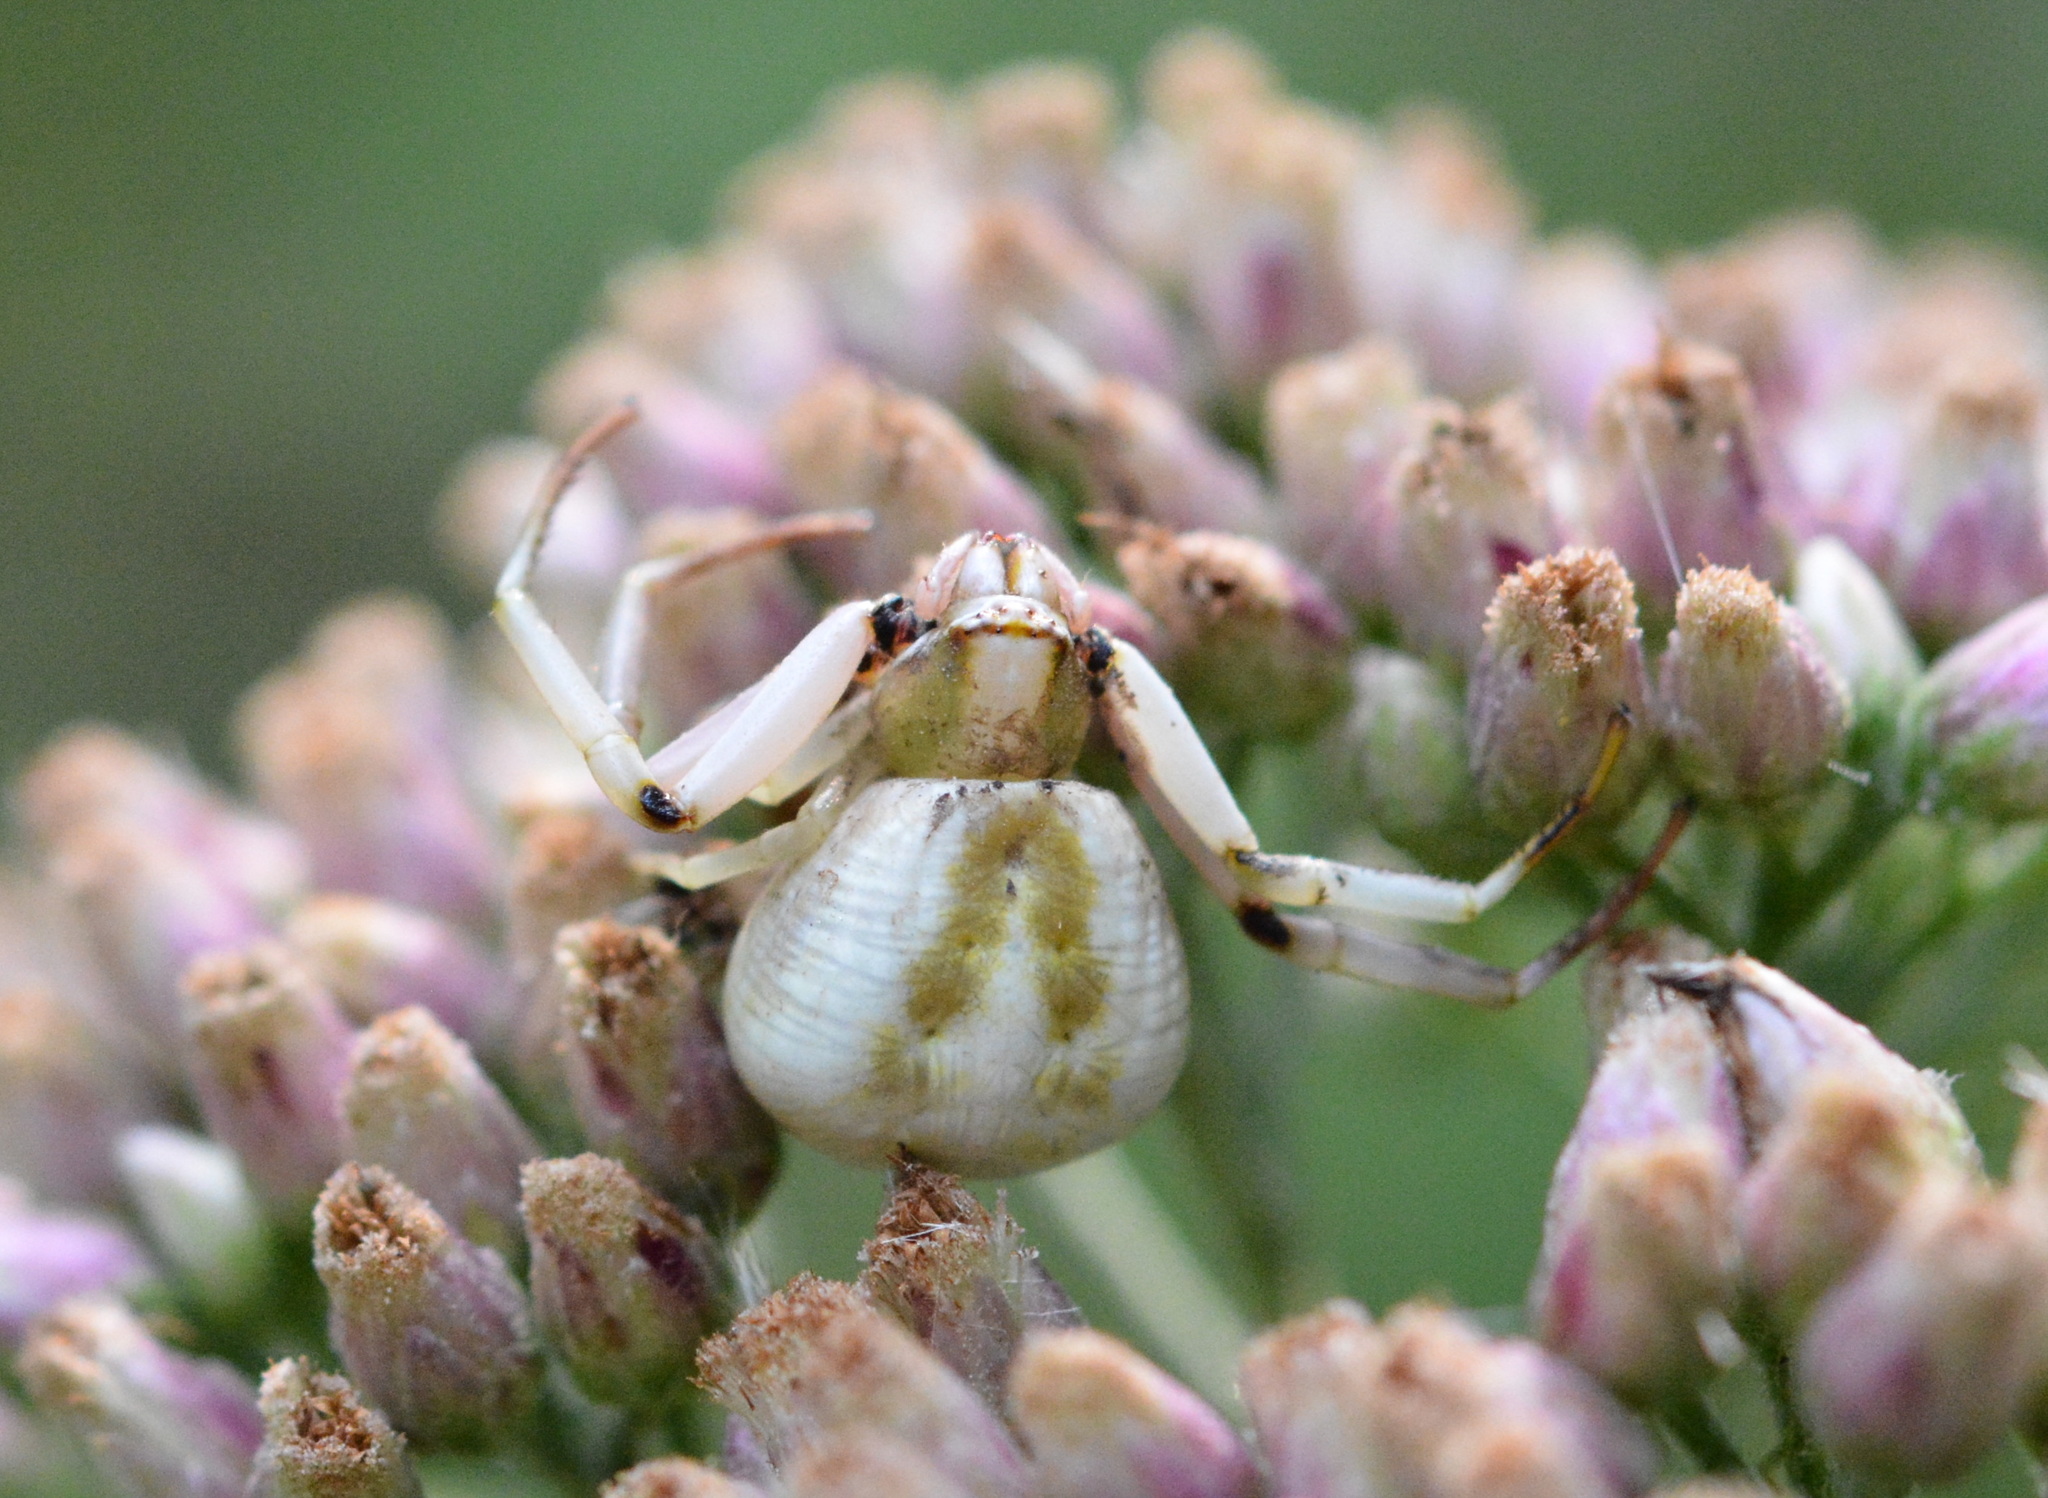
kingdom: Animalia
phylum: Arthropoda
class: Arachnida
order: Araneae
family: Thomisidae
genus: Misumenoides
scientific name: Misumenoides formosipes
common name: White-banded crab spider
